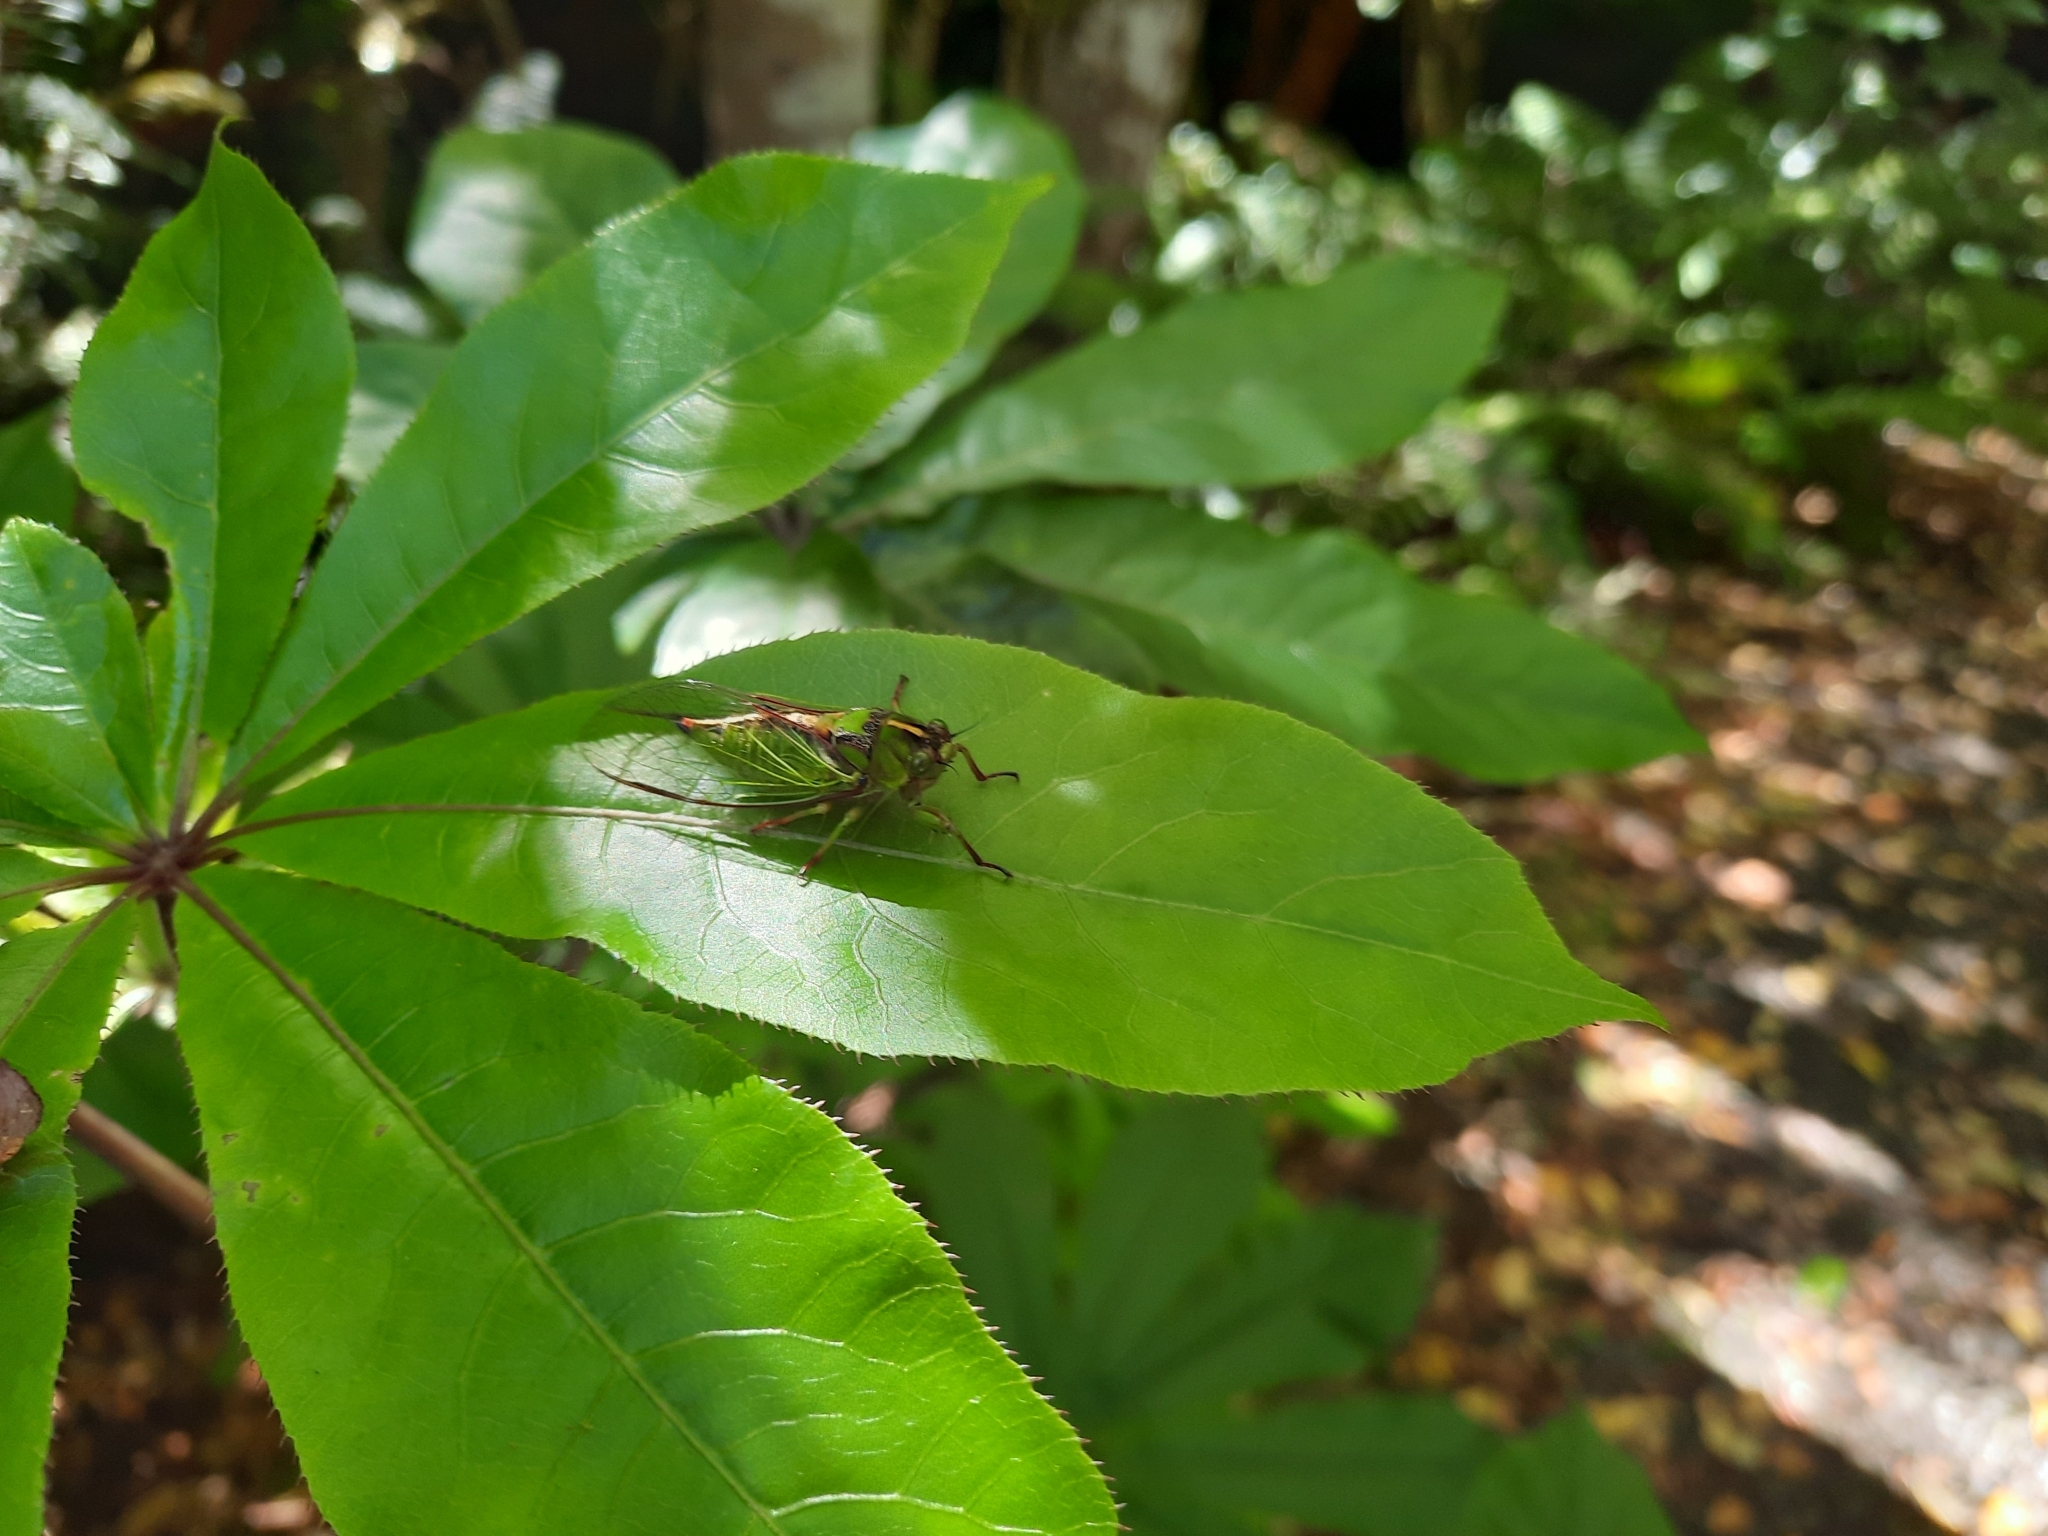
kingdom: Animalia
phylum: Arthropoda
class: Insecta
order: Hemiptera
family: Cicadidae
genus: Kikihia
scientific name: Kikihia subalpina
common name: Chathams cicada
